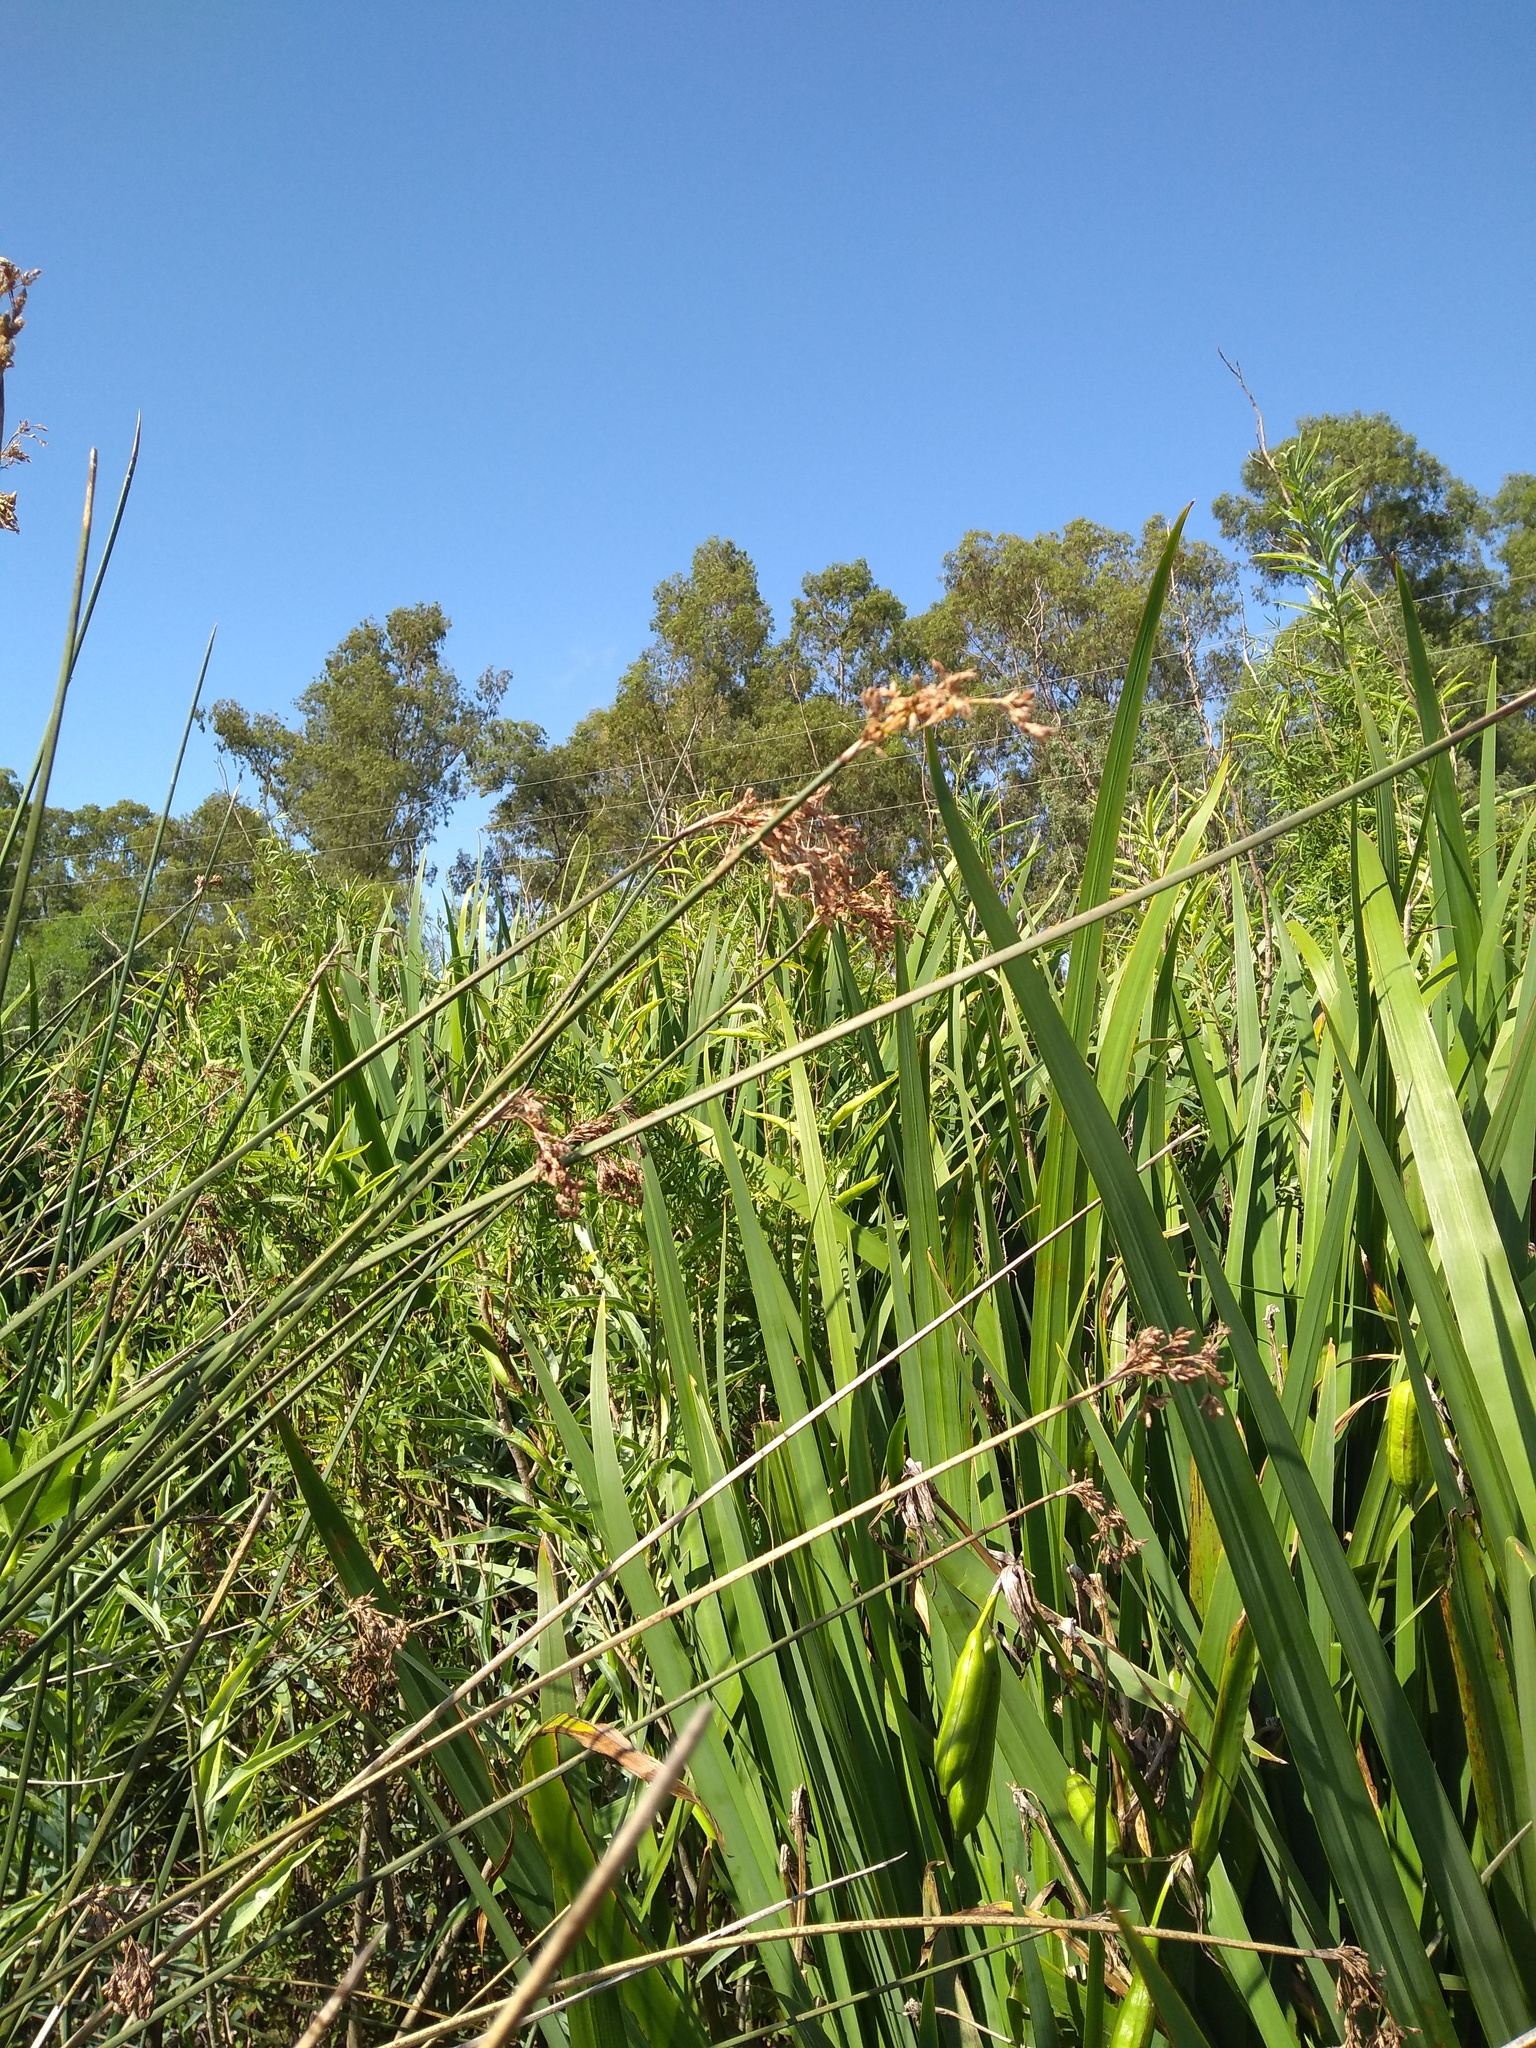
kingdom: Plantae
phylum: Tracheophyta
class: Liliopsida
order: Poales
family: Cyperaceae
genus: Schoenoplectus
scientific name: Schoenoplectus californicus
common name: California bulrush
